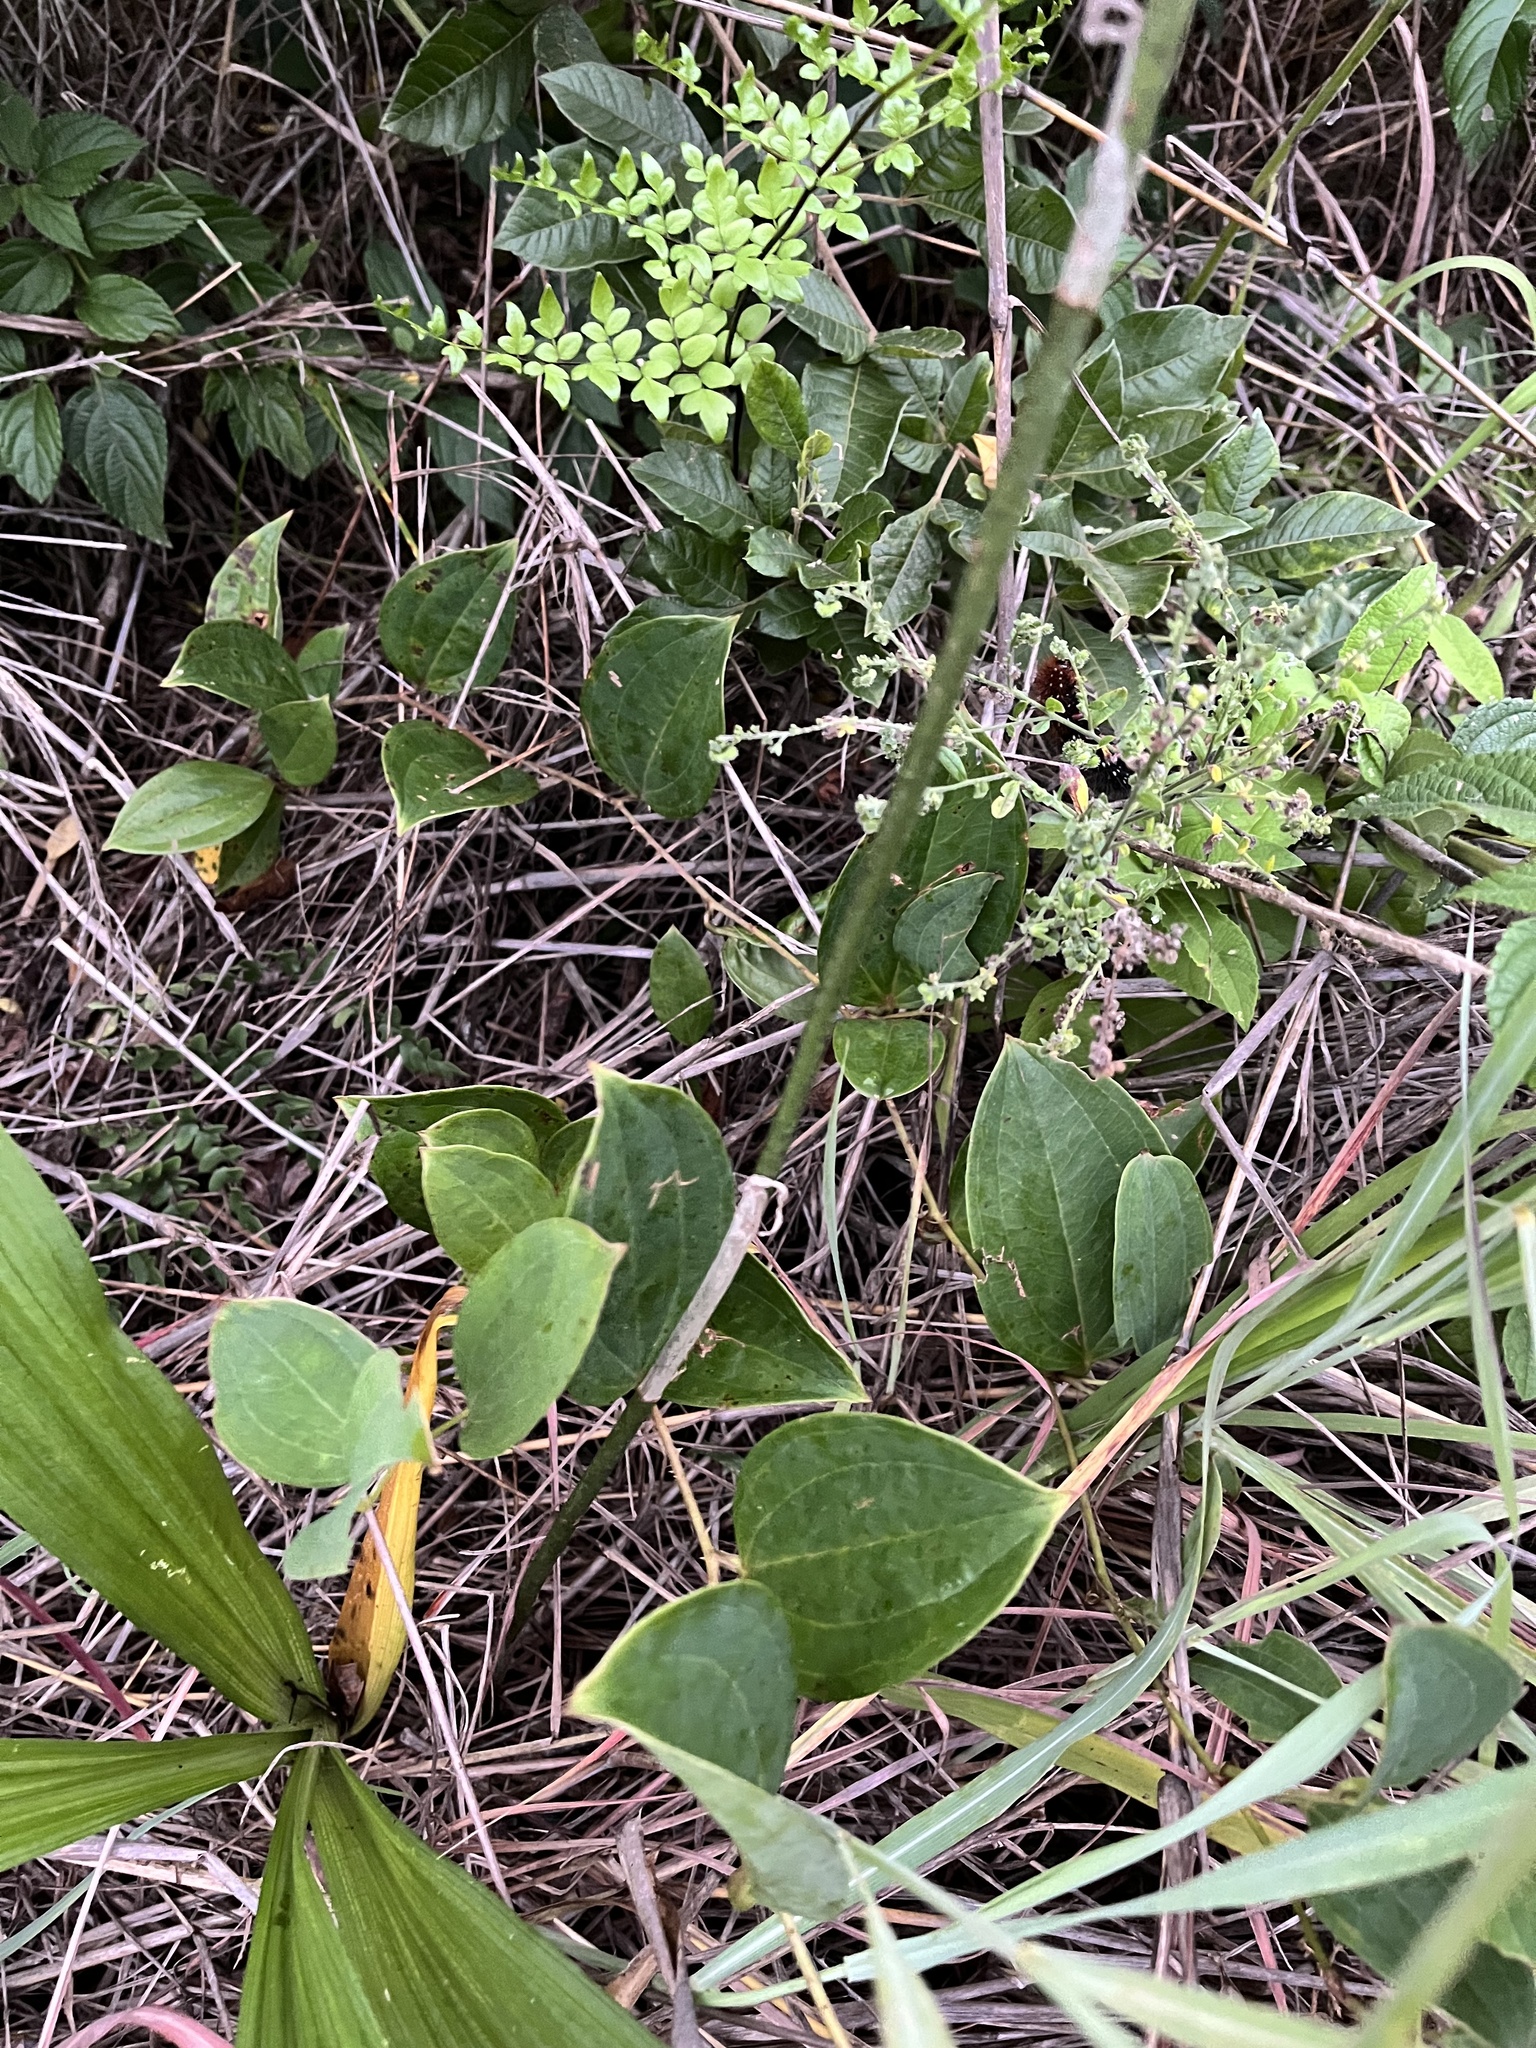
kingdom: Plantae
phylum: Tracheophyta
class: Liliopsida
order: Asparagales
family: Orchidaceae
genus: Eulophia
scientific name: Eulophia streptopetala
